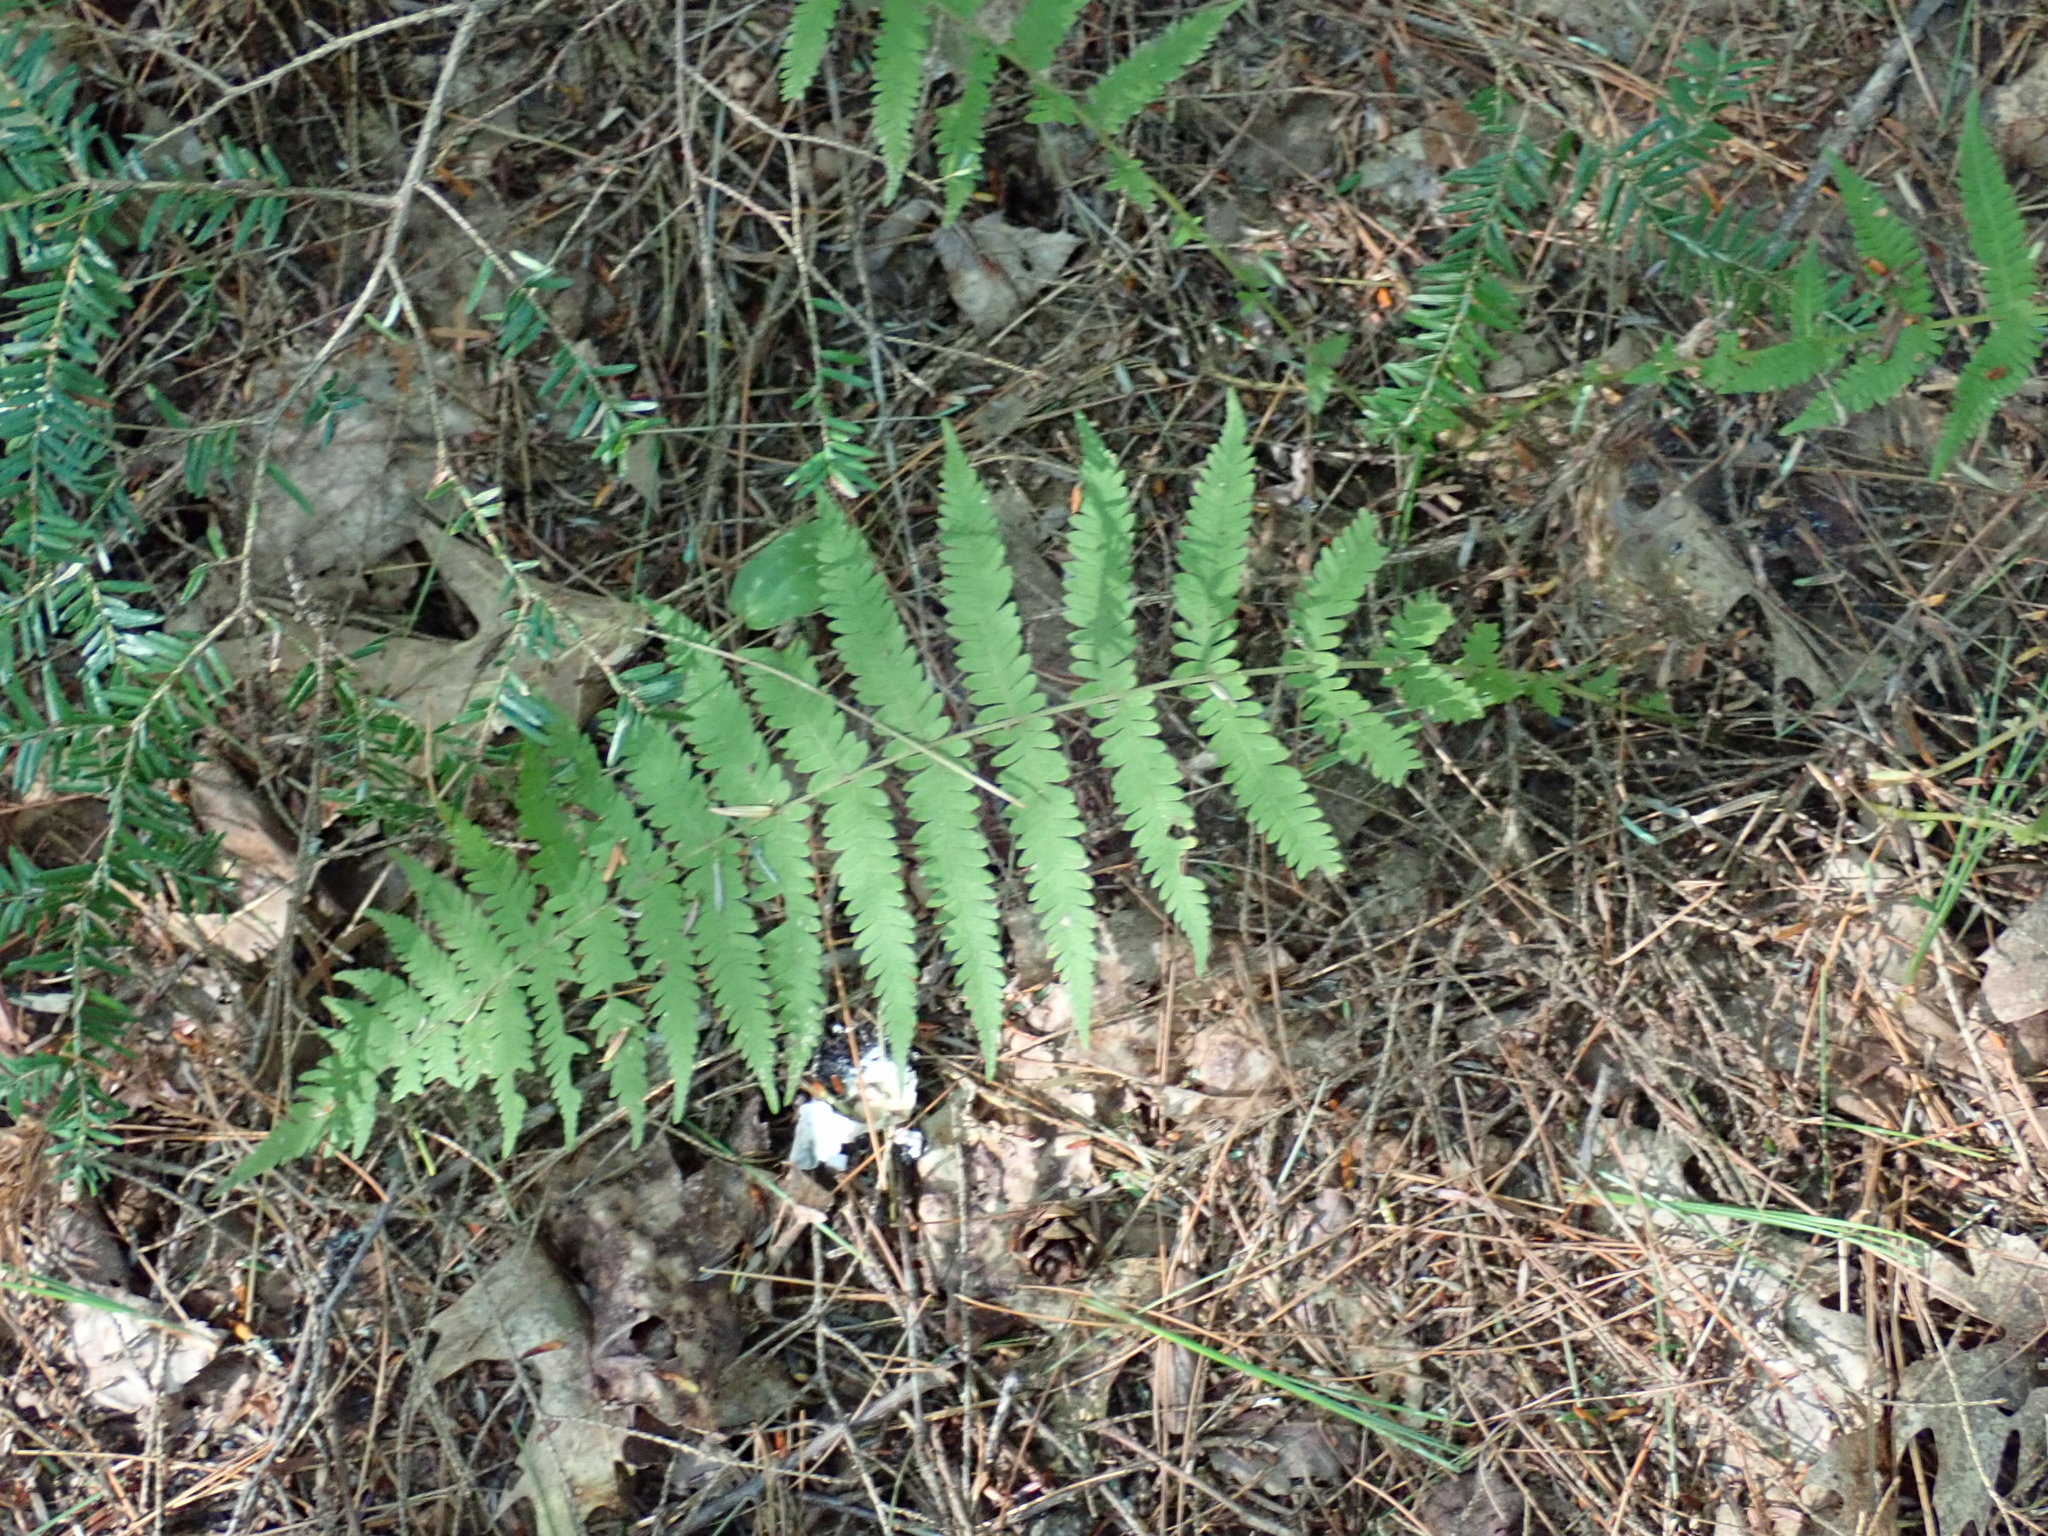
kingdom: Plantae
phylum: Tracheophyta
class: Polypodiopsida
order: Polypodiales
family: Thelypteridaceae
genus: Amauropelta
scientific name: Amauropelta noveboracensis
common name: New york fern
